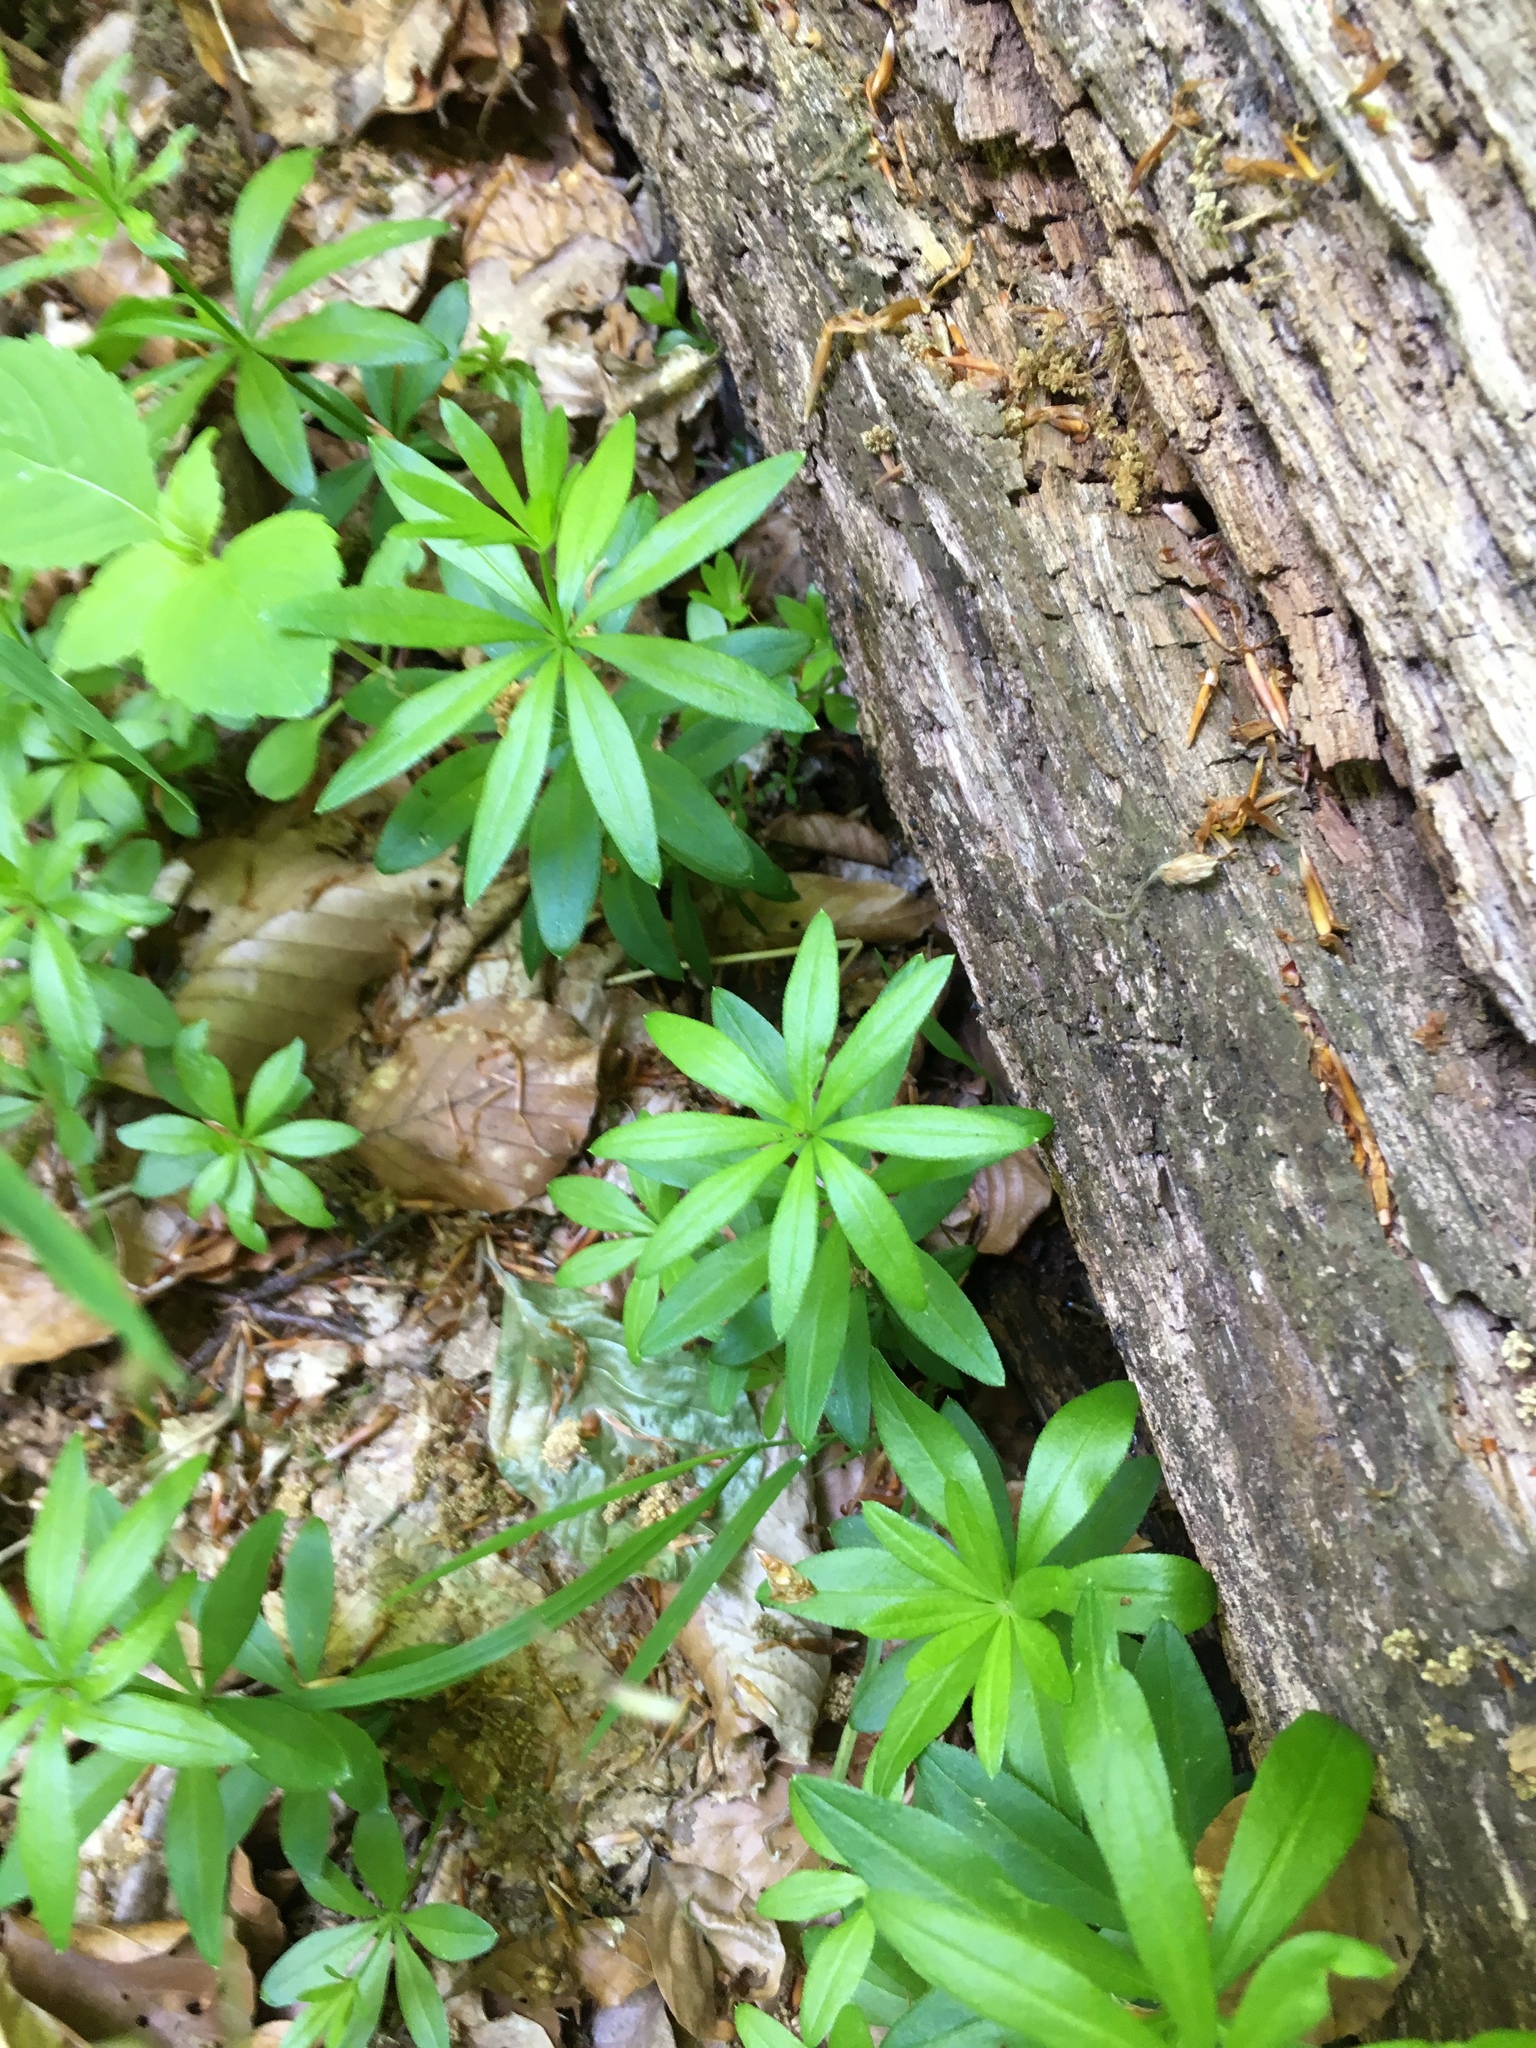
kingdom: Plantae
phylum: Tracheophyta
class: Magnoliopsida
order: Gentianales
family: Rubiaceae
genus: Galium
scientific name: Galium odoratum
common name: Sweet woodruff
